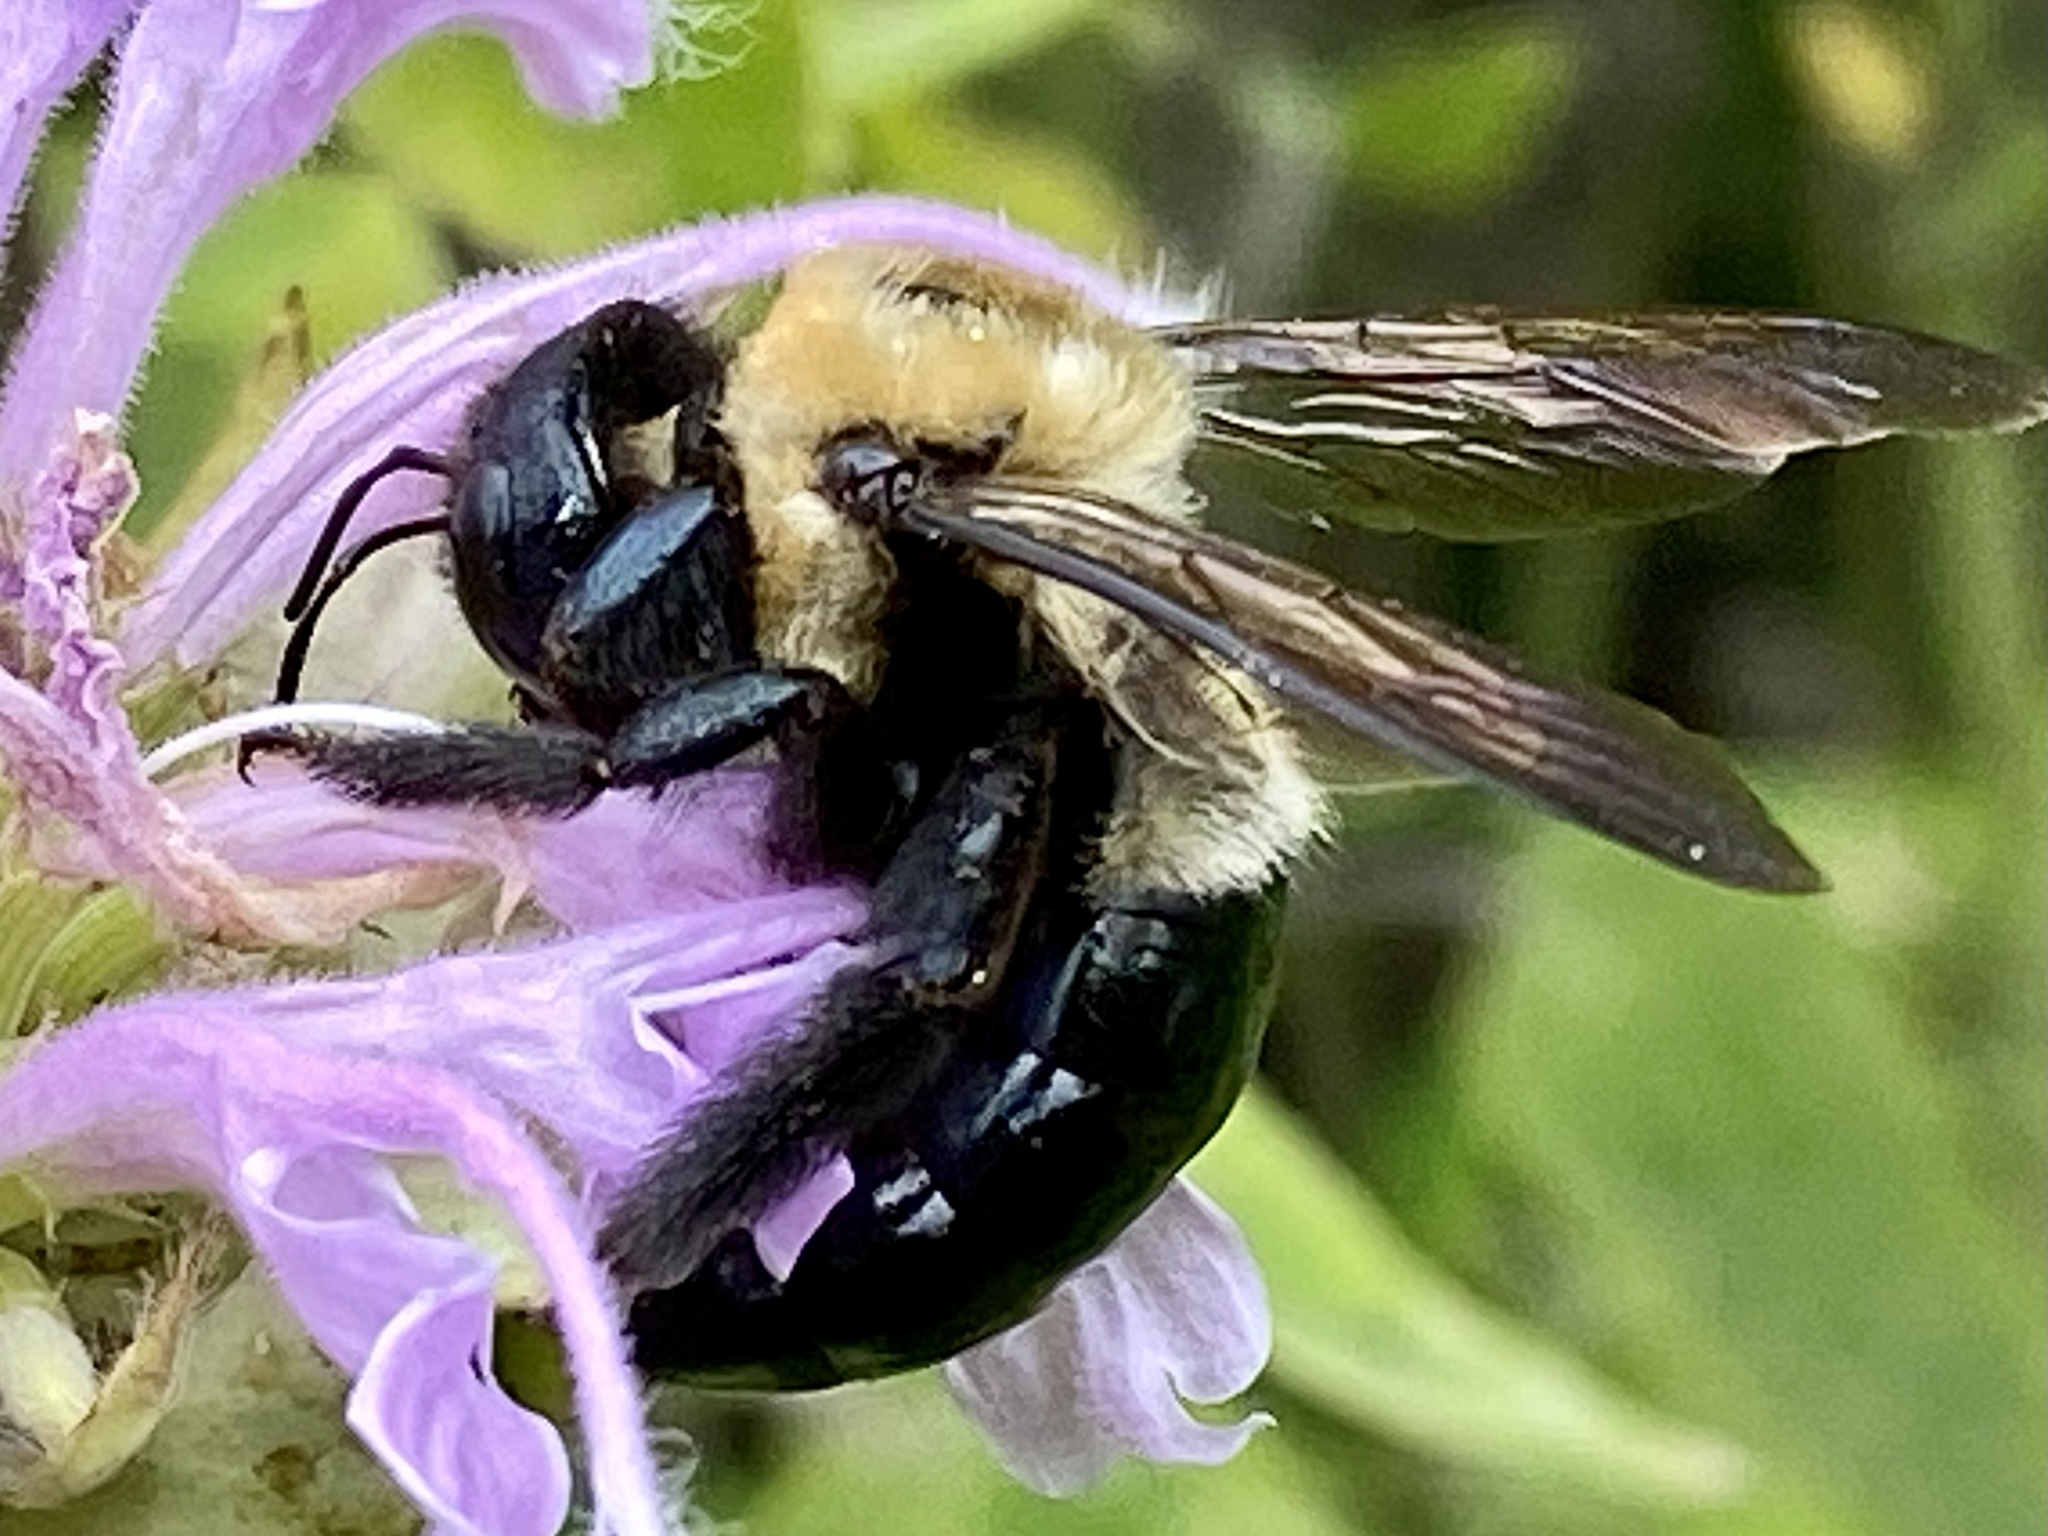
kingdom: Animalia
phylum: Arthropoda
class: Insecta
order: Hymenoptera
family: Apidae
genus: Xylocopa
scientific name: Xylocopa virginica
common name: Carpenter bee
